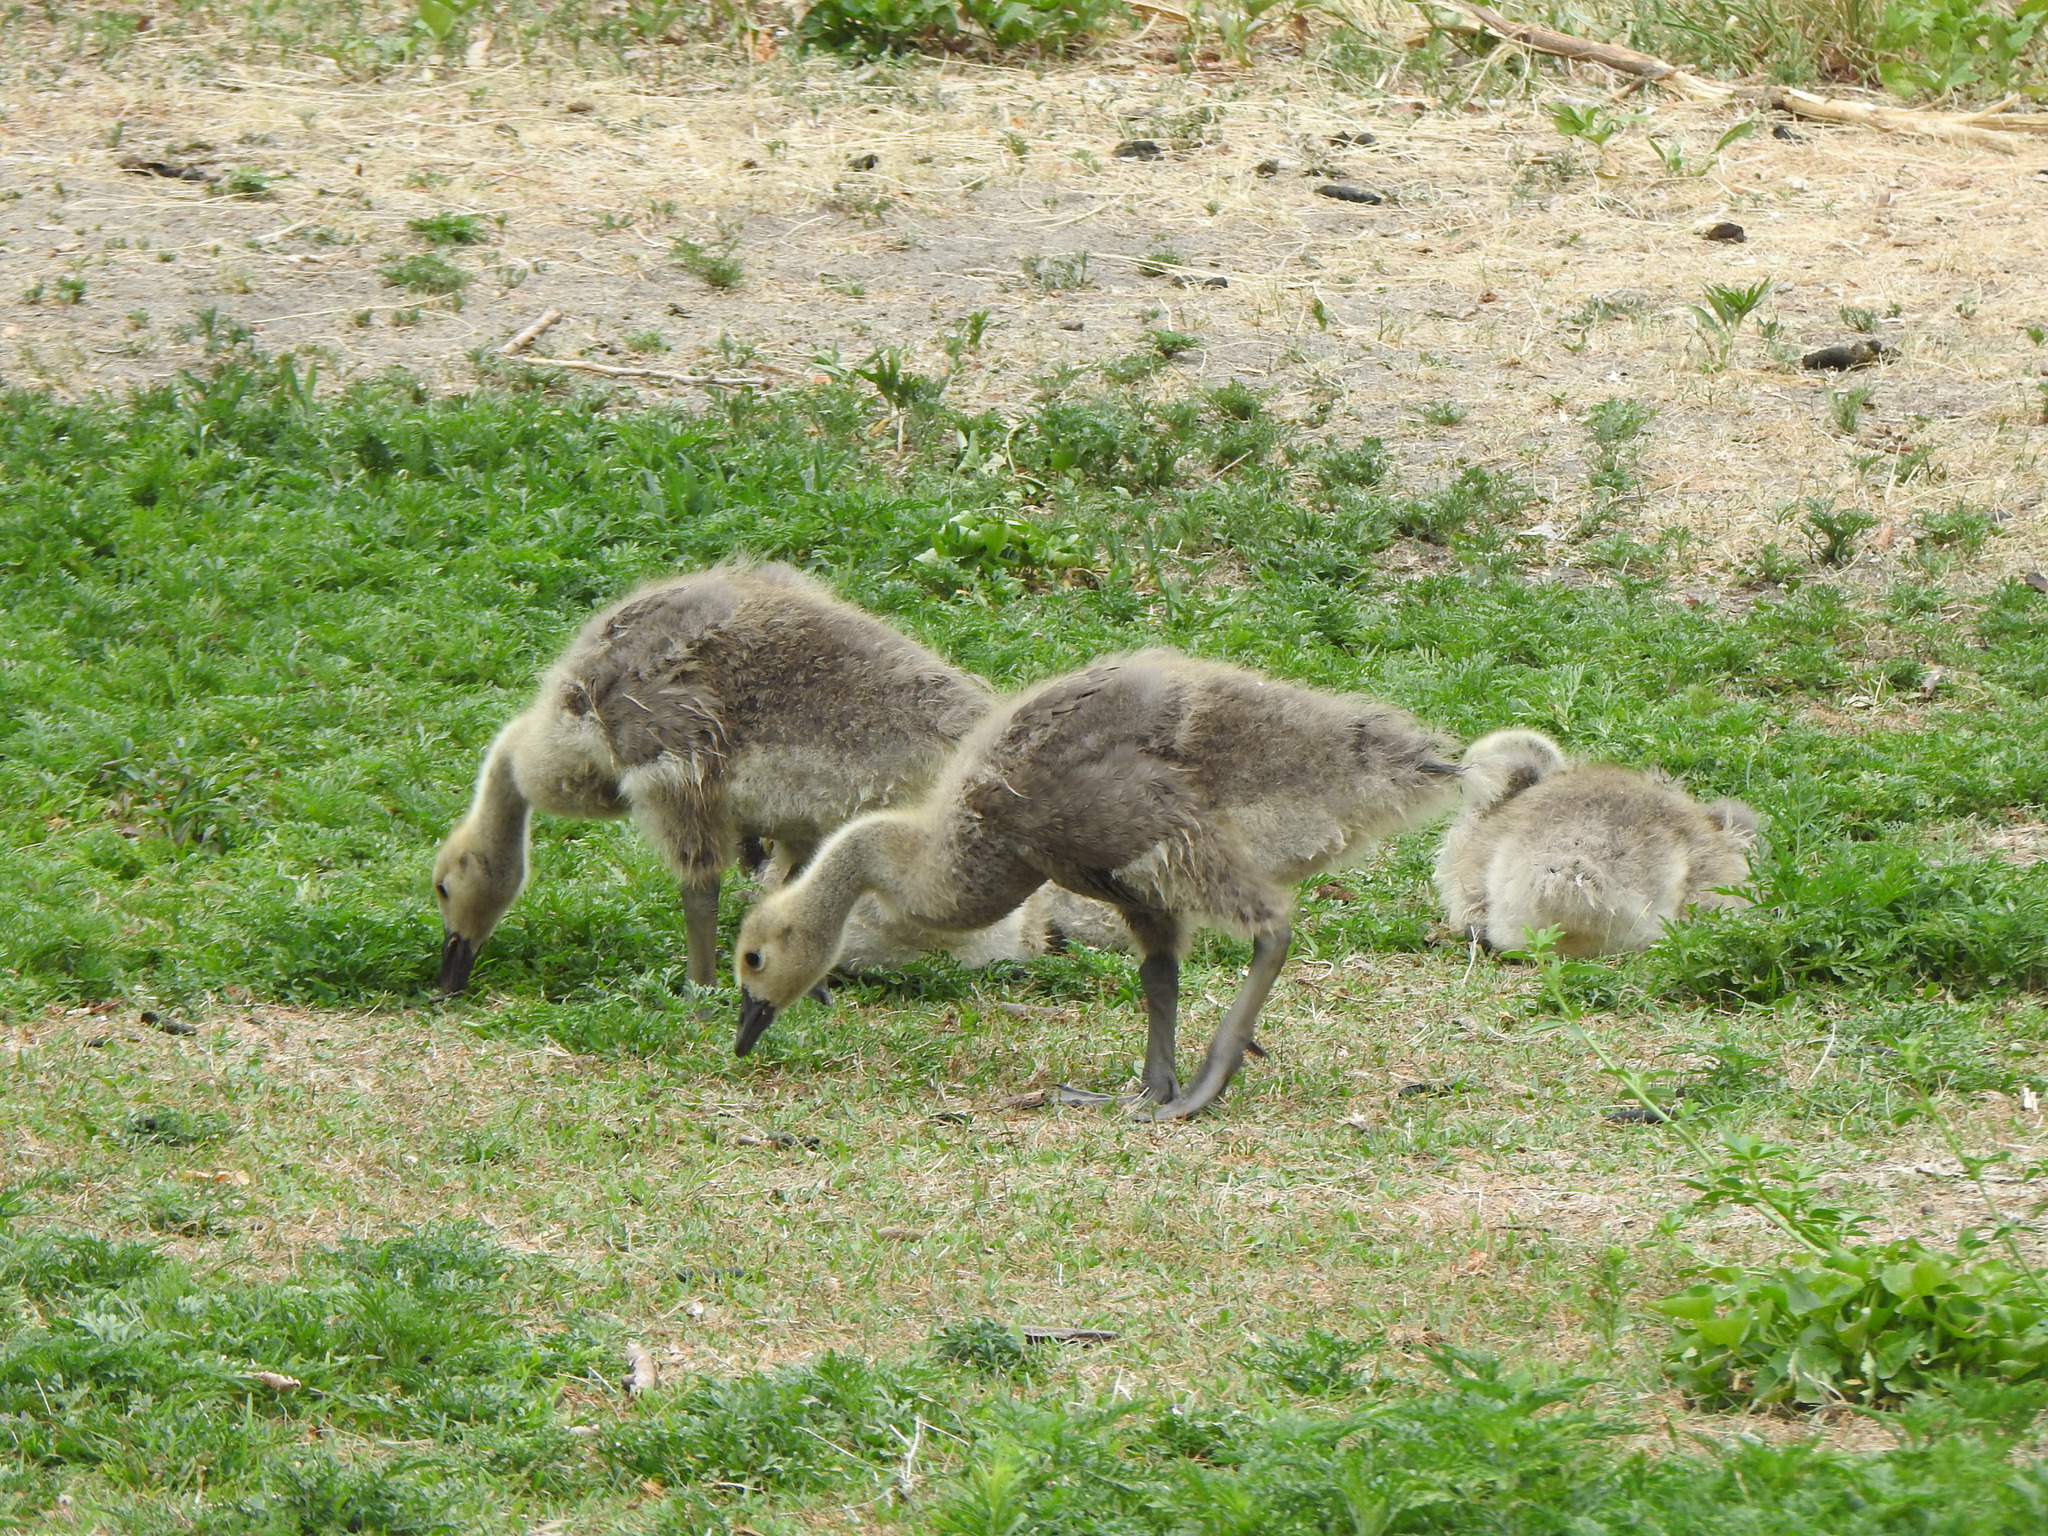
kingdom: Animalia
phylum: Chordata
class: Aves
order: Anseriformes
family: Anatidae
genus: Branta
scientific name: Branta canadensis
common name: Canada goose
